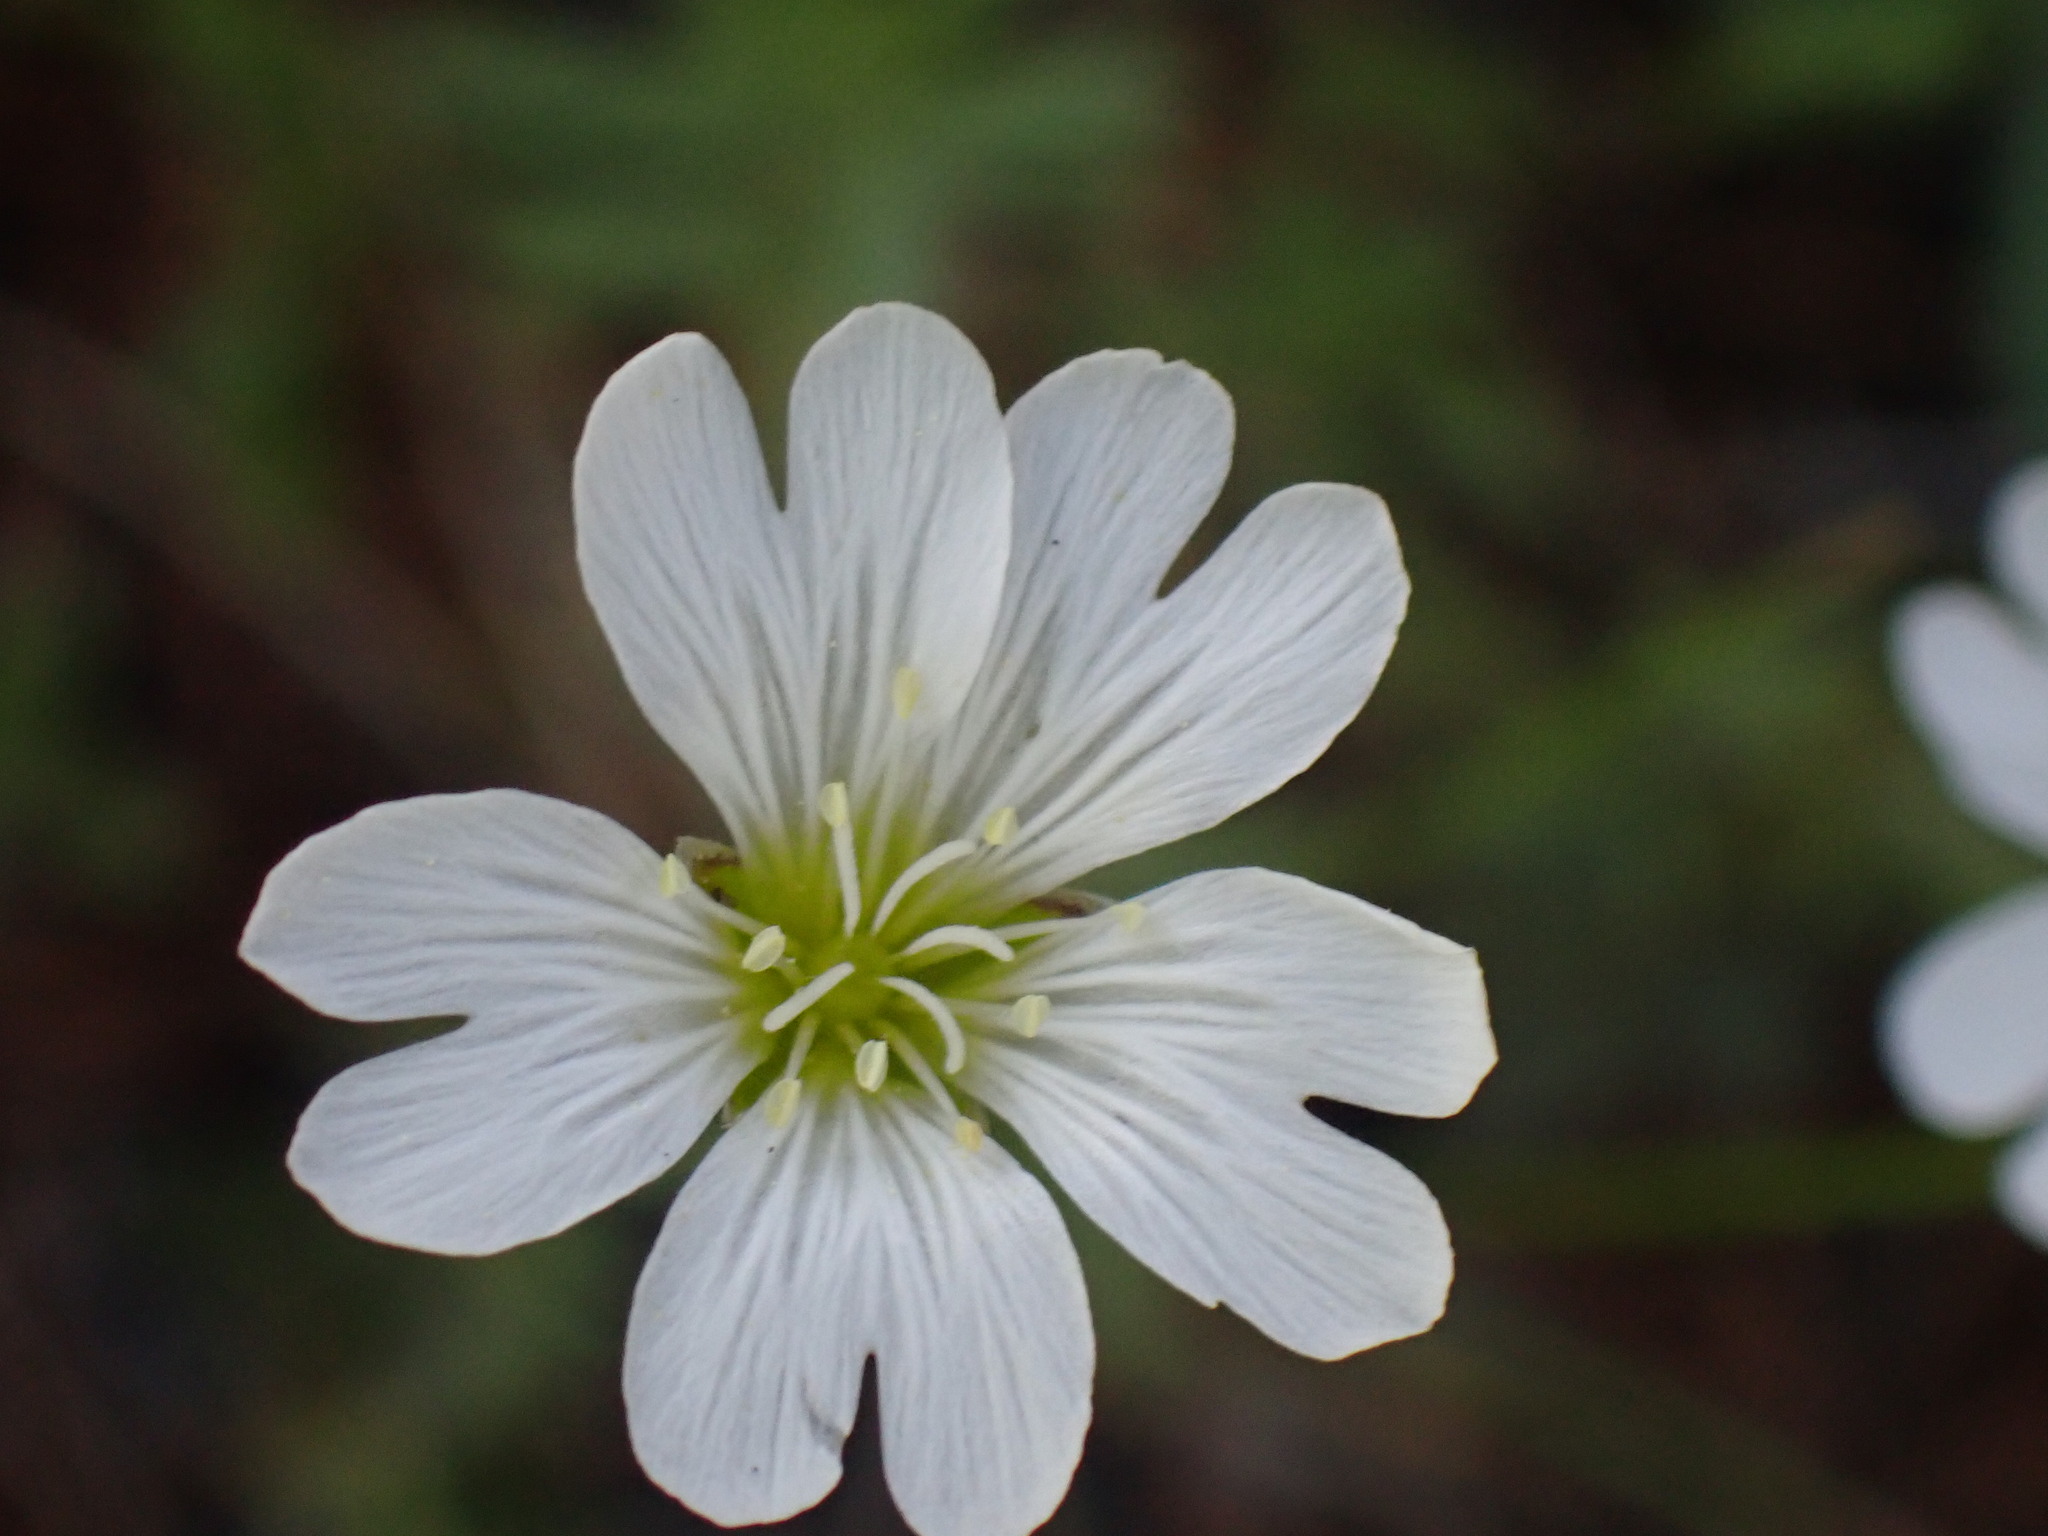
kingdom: Plantae
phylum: Tracheophyta
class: Magnoliopsida
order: Caryophyllales
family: Caryophyllaceae
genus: Cerastium
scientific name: Cerastium arvense
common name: Field mouse-ear
